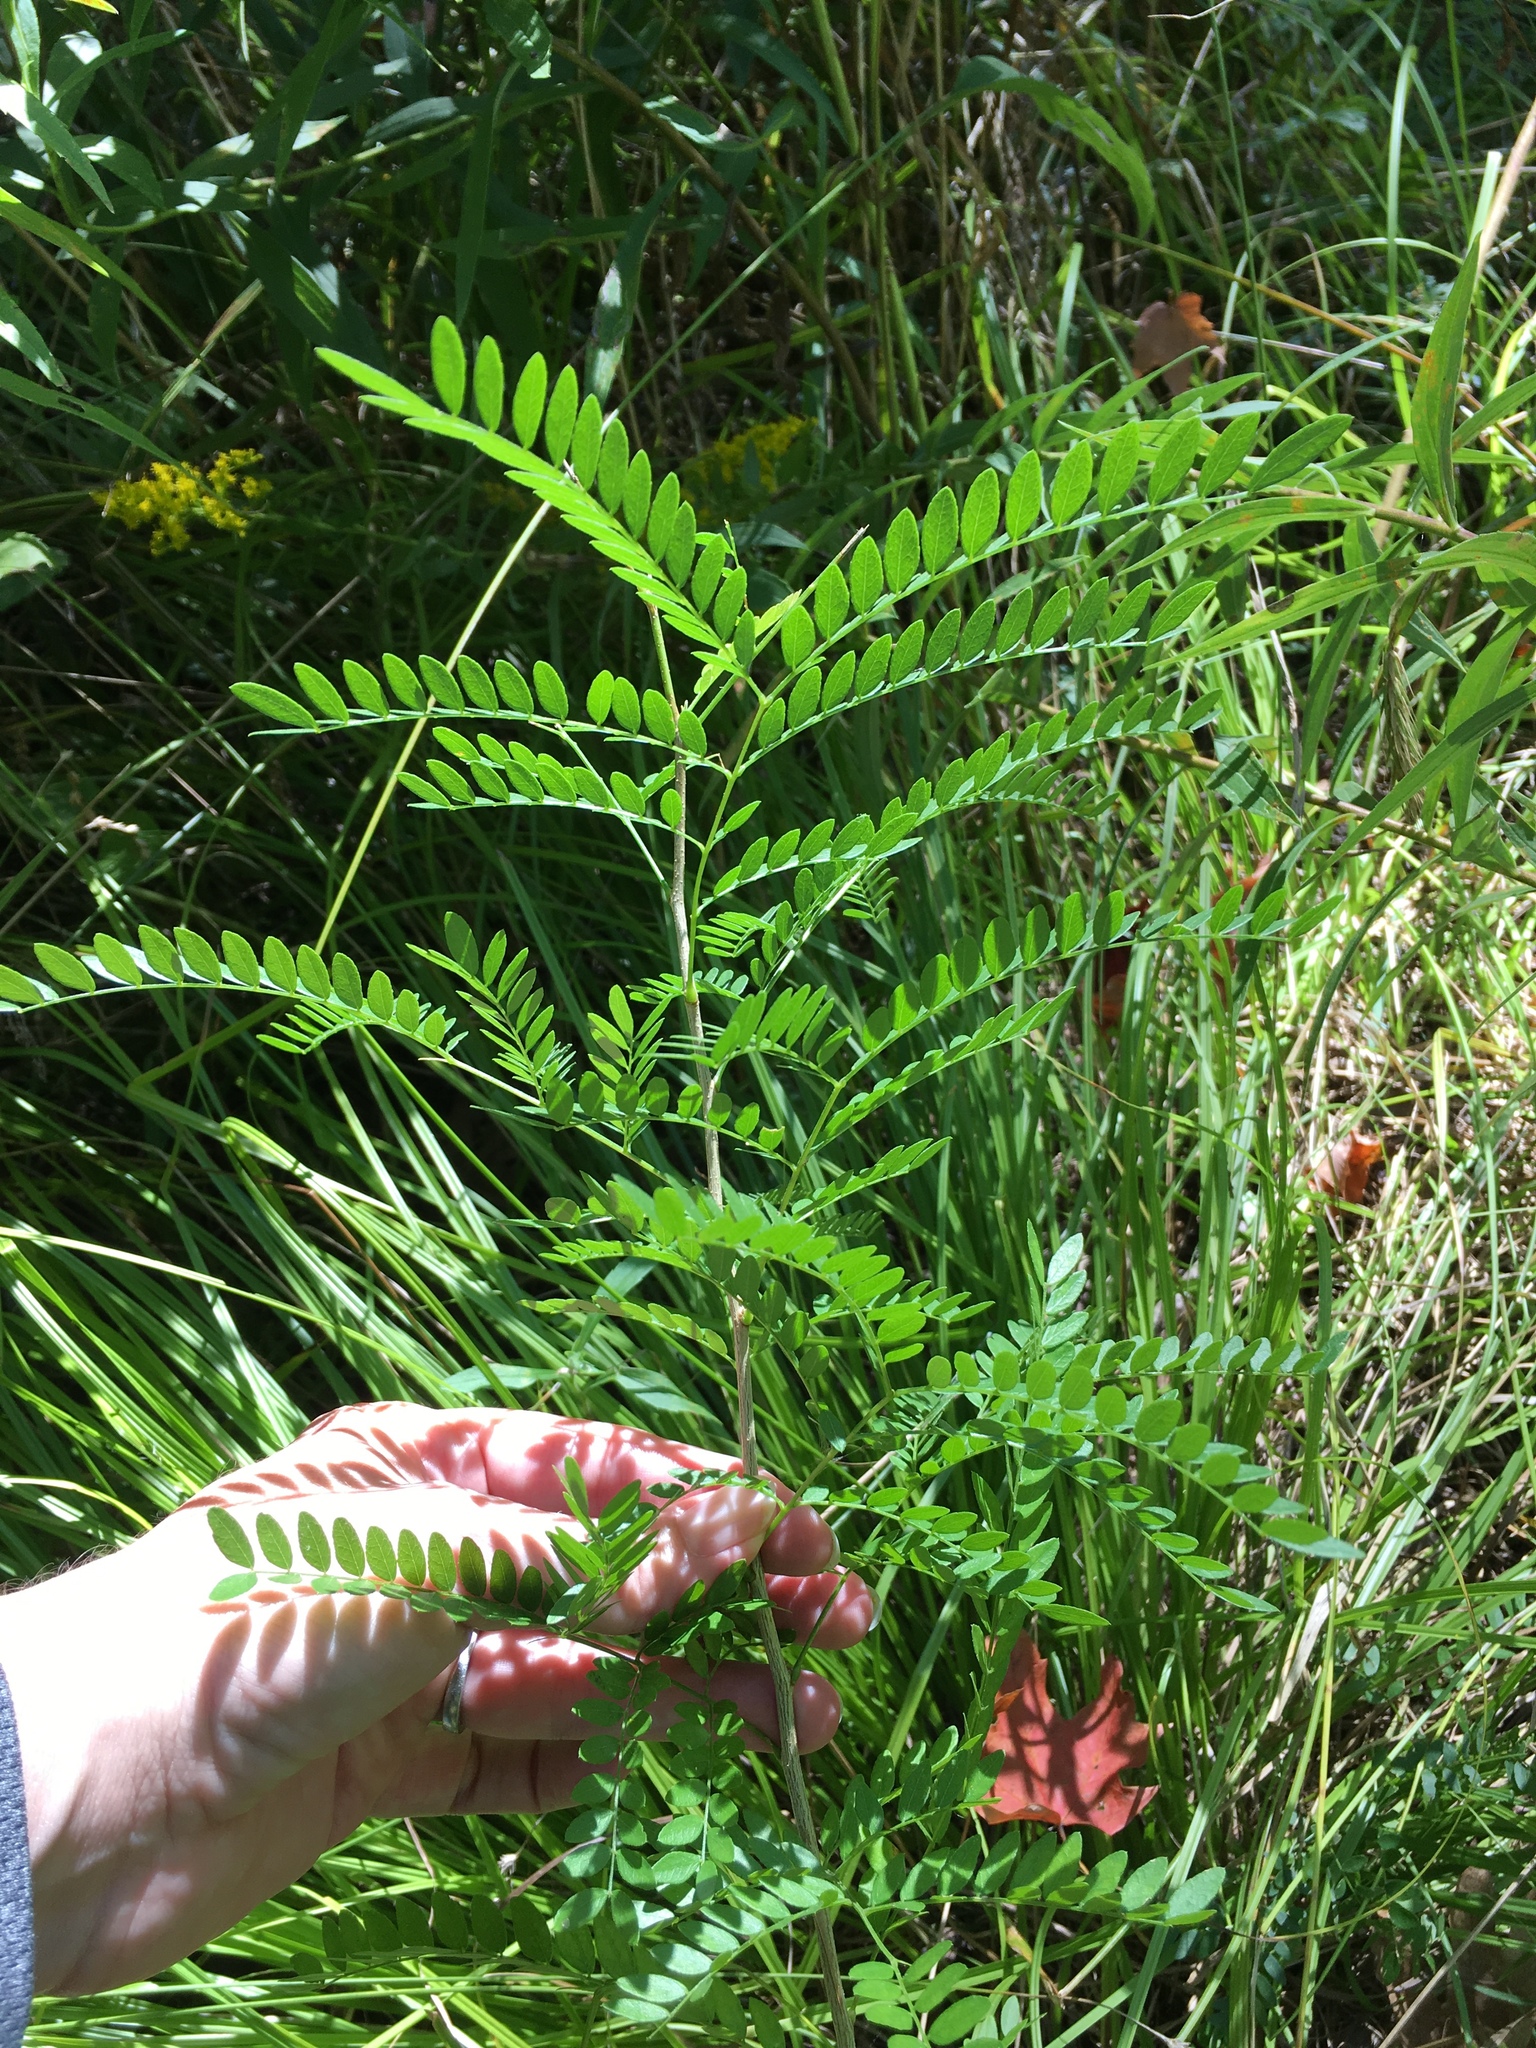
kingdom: Plantae
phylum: Tracheophyta
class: Magnoliopsida
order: Fabales
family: Fabaceae
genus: Gleditsia
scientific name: Gleditsia triacanthos
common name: Common honeylocust
